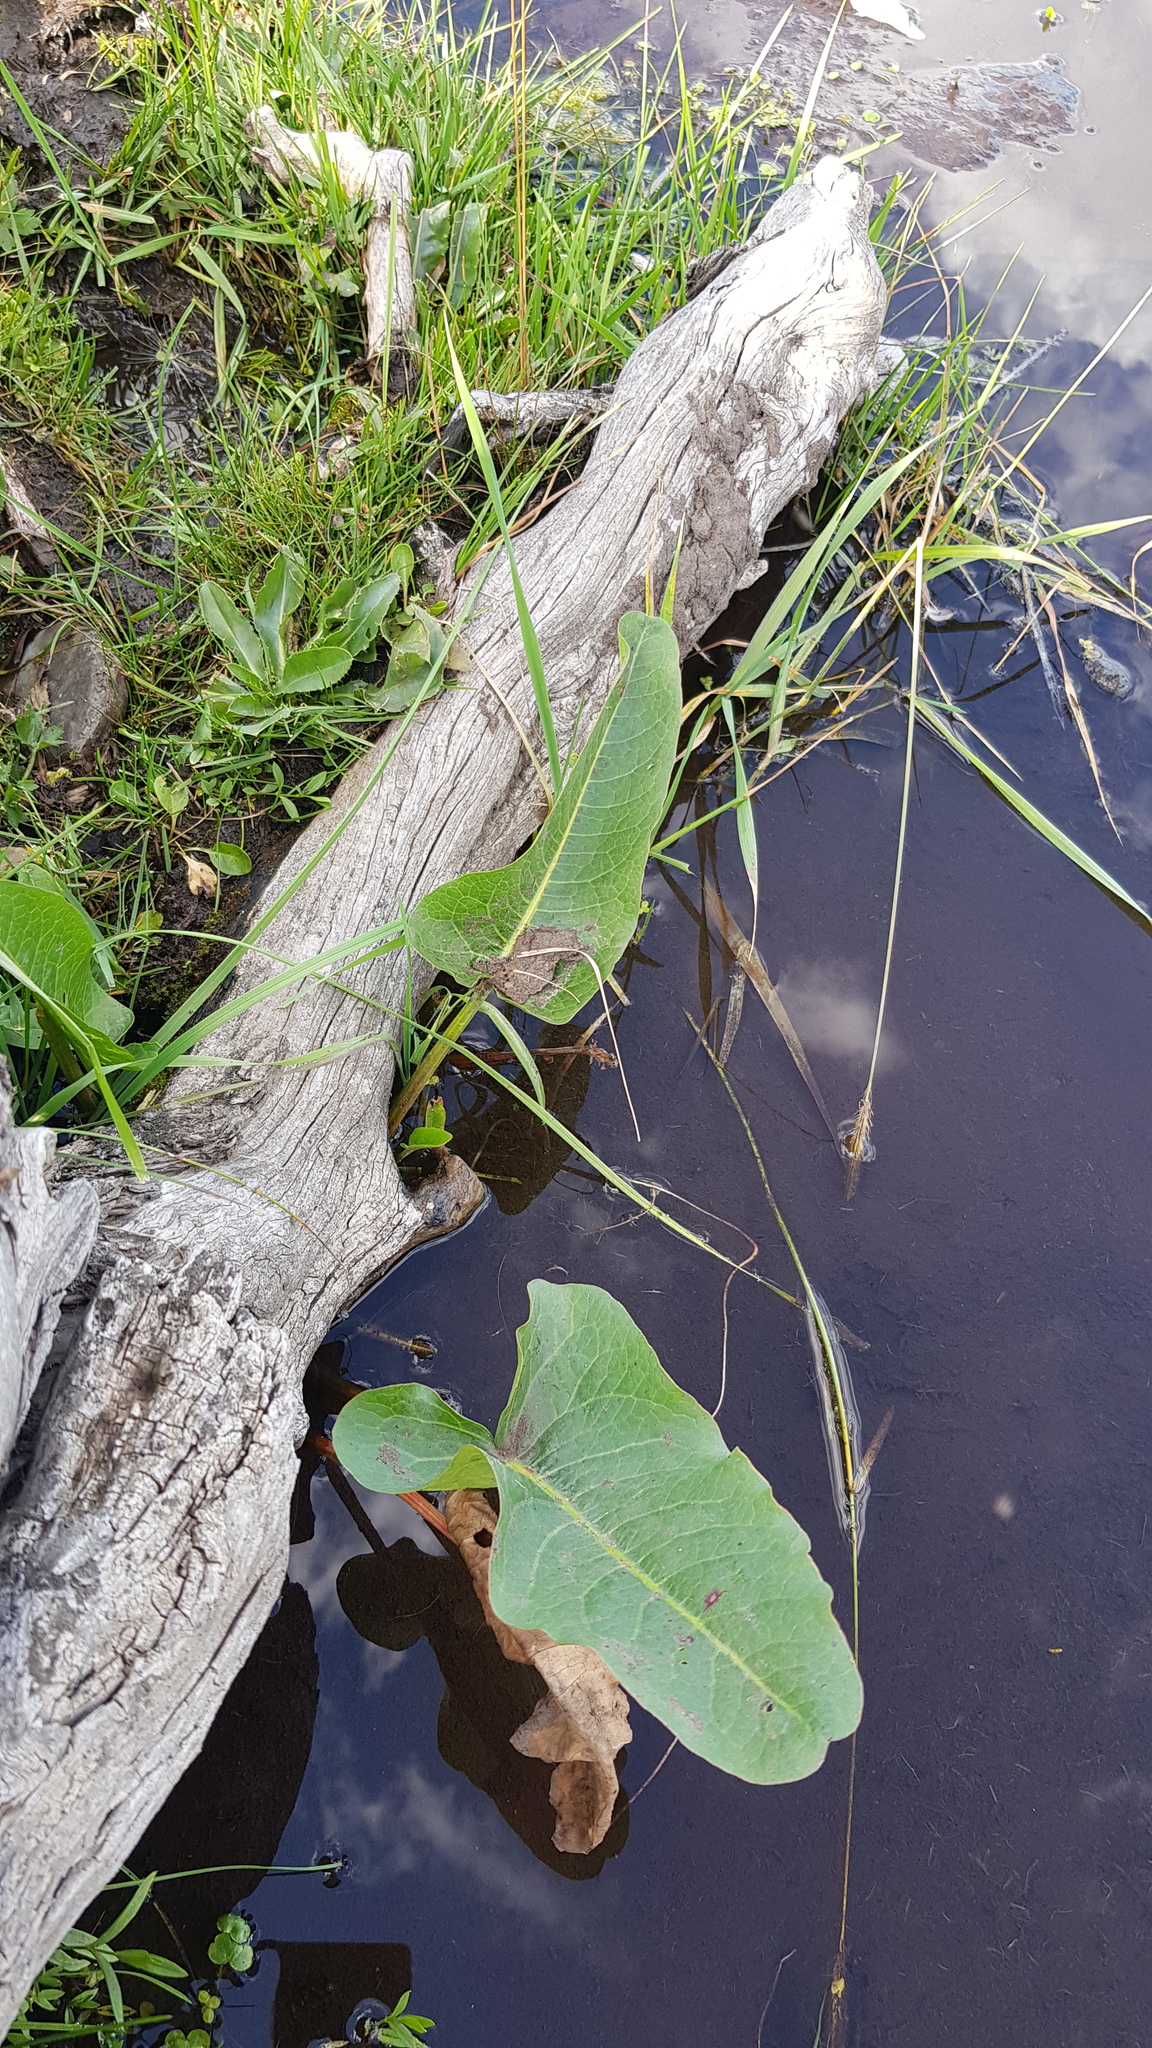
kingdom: Plantae
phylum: Tracheophyta
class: Magnoliopsida
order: Caryophyllales
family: Polygonaceae
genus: Rumex
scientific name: Rumex thyrsiflorus
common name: Garden sorrel
